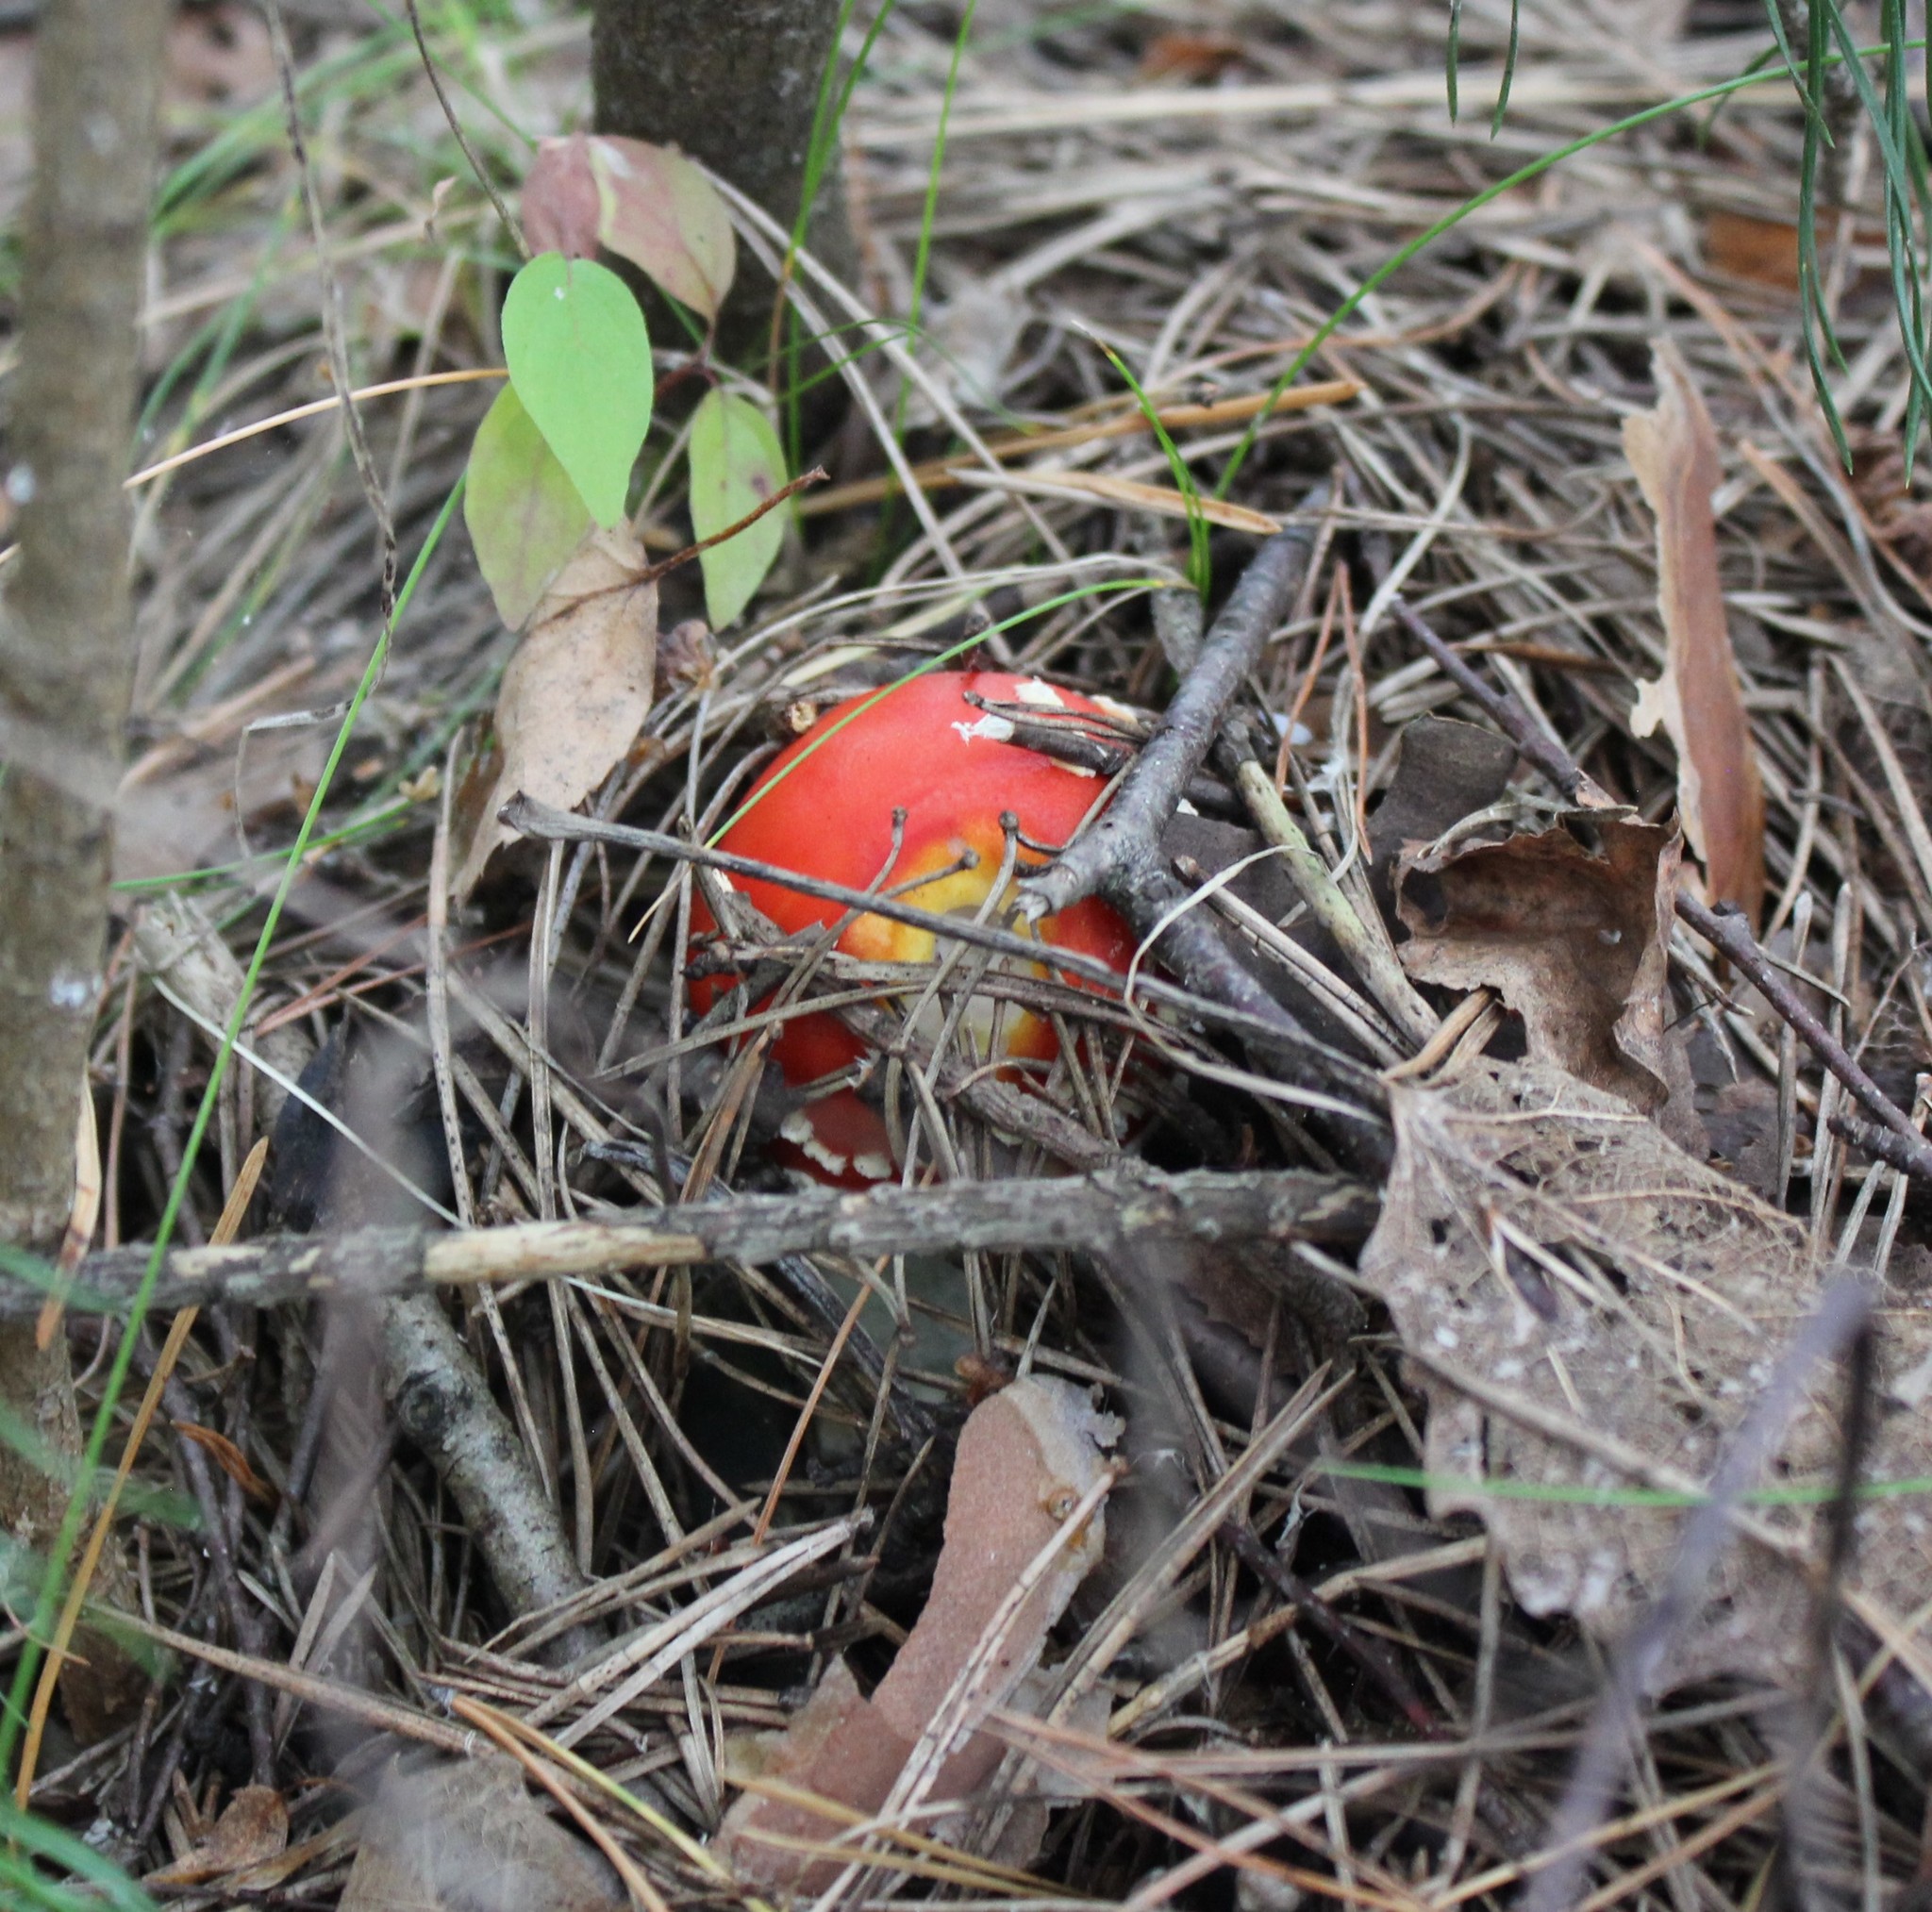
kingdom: Fungi
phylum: Basidiomycota
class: Agaricomycetes
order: Agaricales
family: Amanitaceae
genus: Amanita
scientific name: Amanita muscaria
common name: Fly agaric
